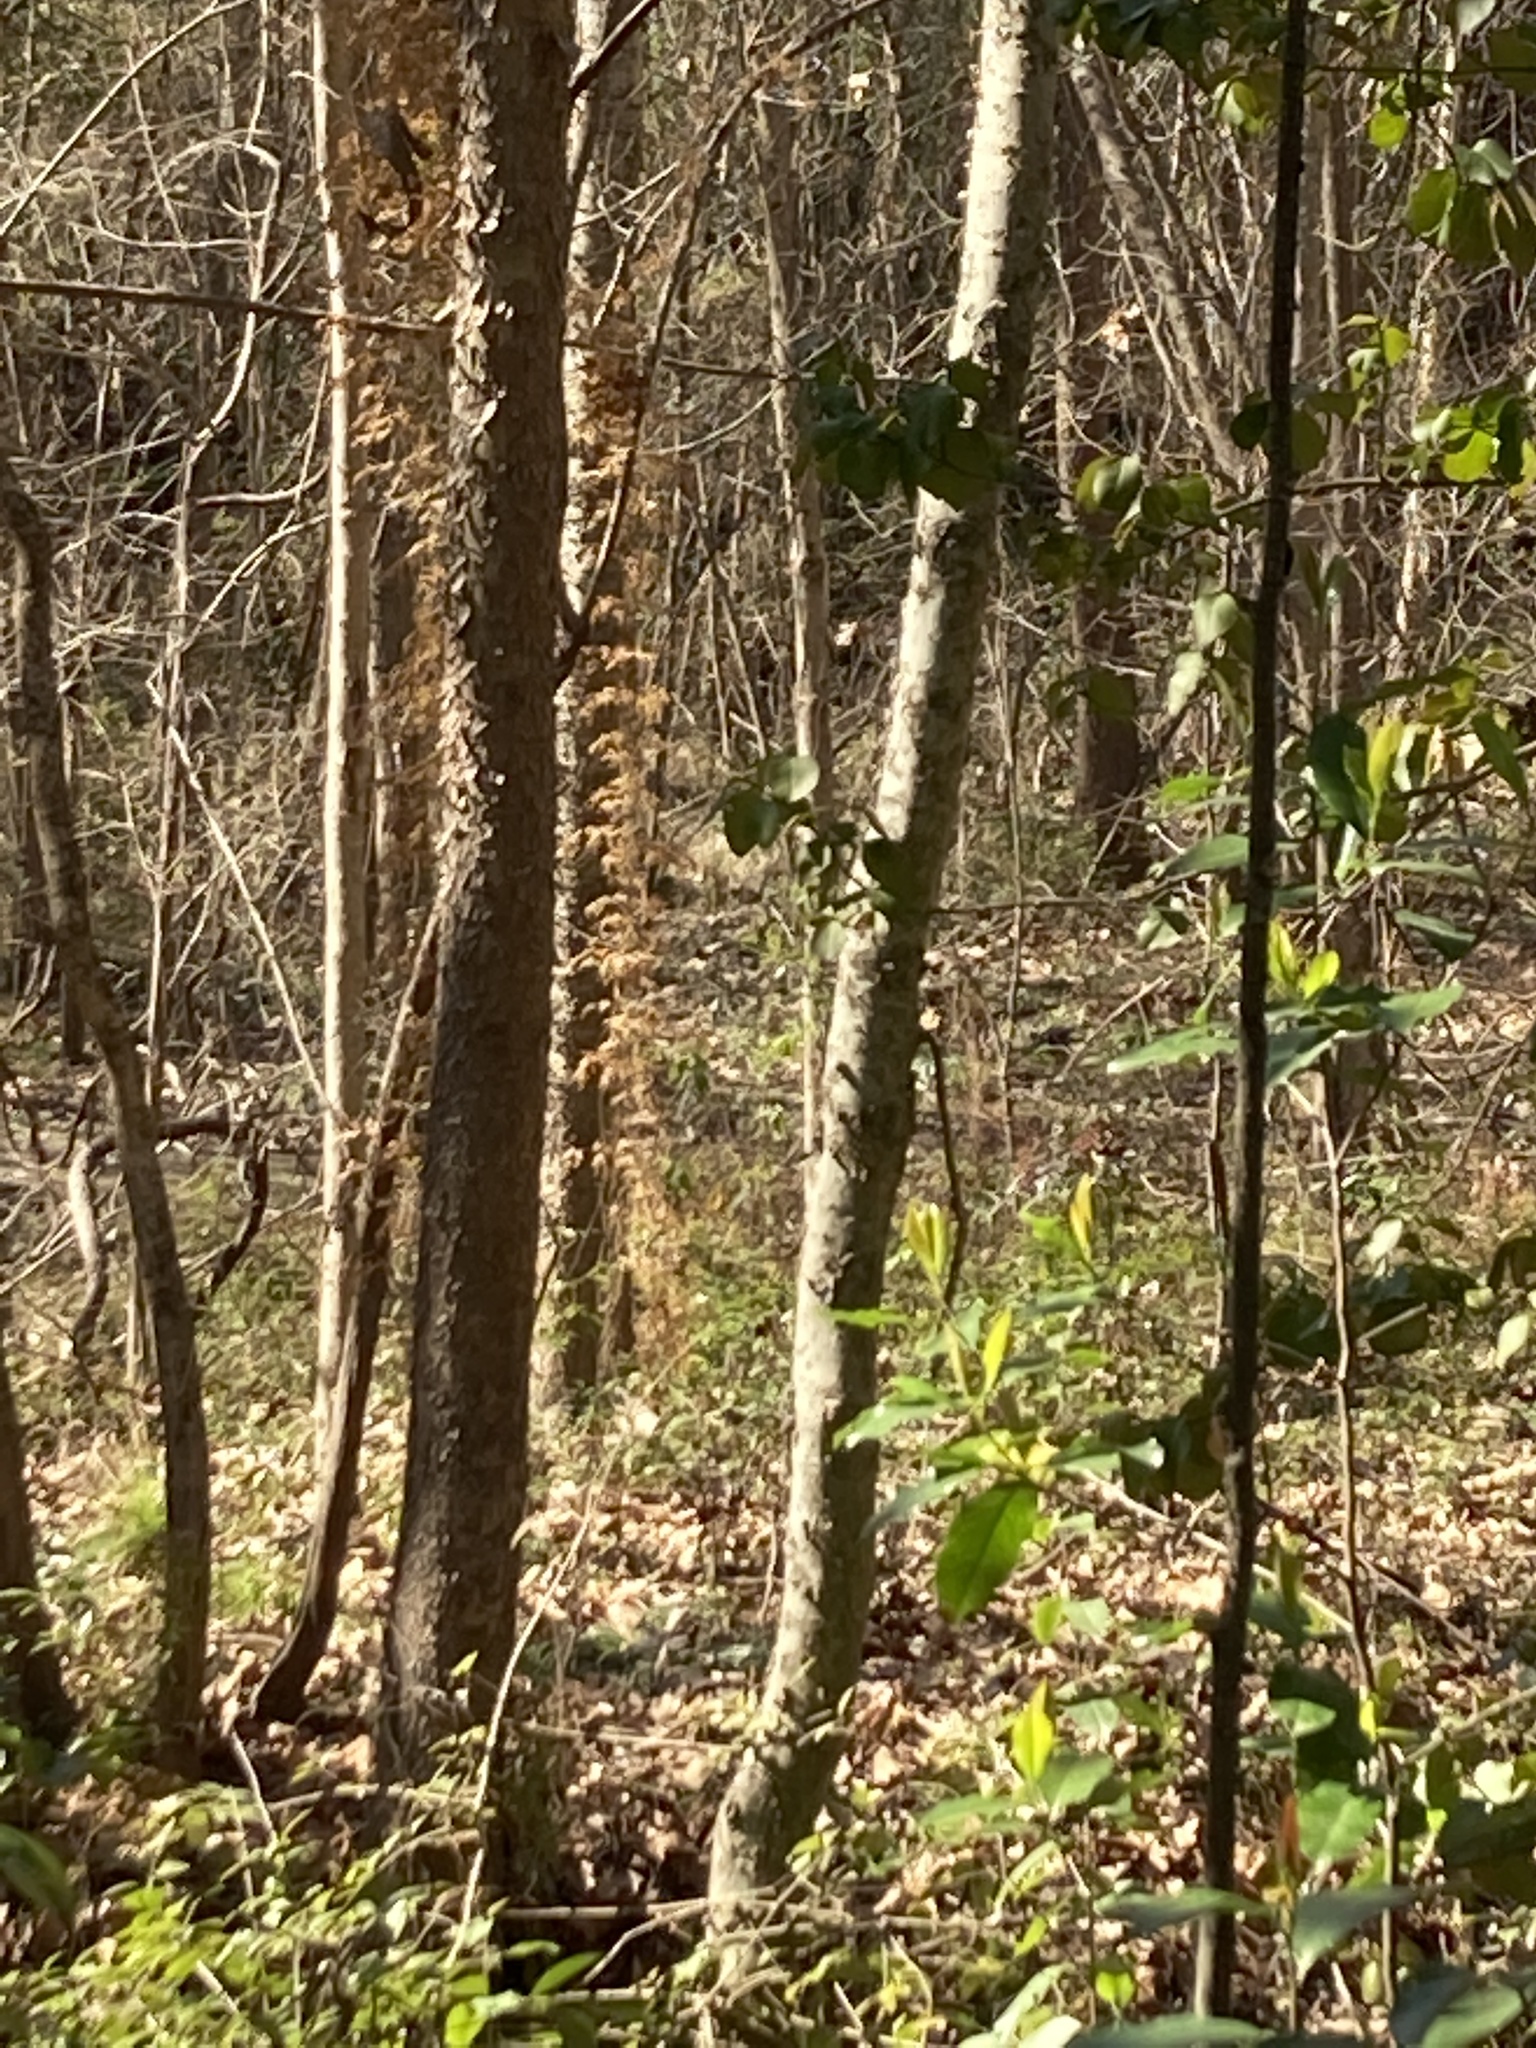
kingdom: Plantae
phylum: Tracheophyta
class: Polypodiopsida
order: Schizaeales
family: Lygodiaceae
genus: Lygodium
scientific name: Lygodium japonicum
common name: Japanese climbing fern
